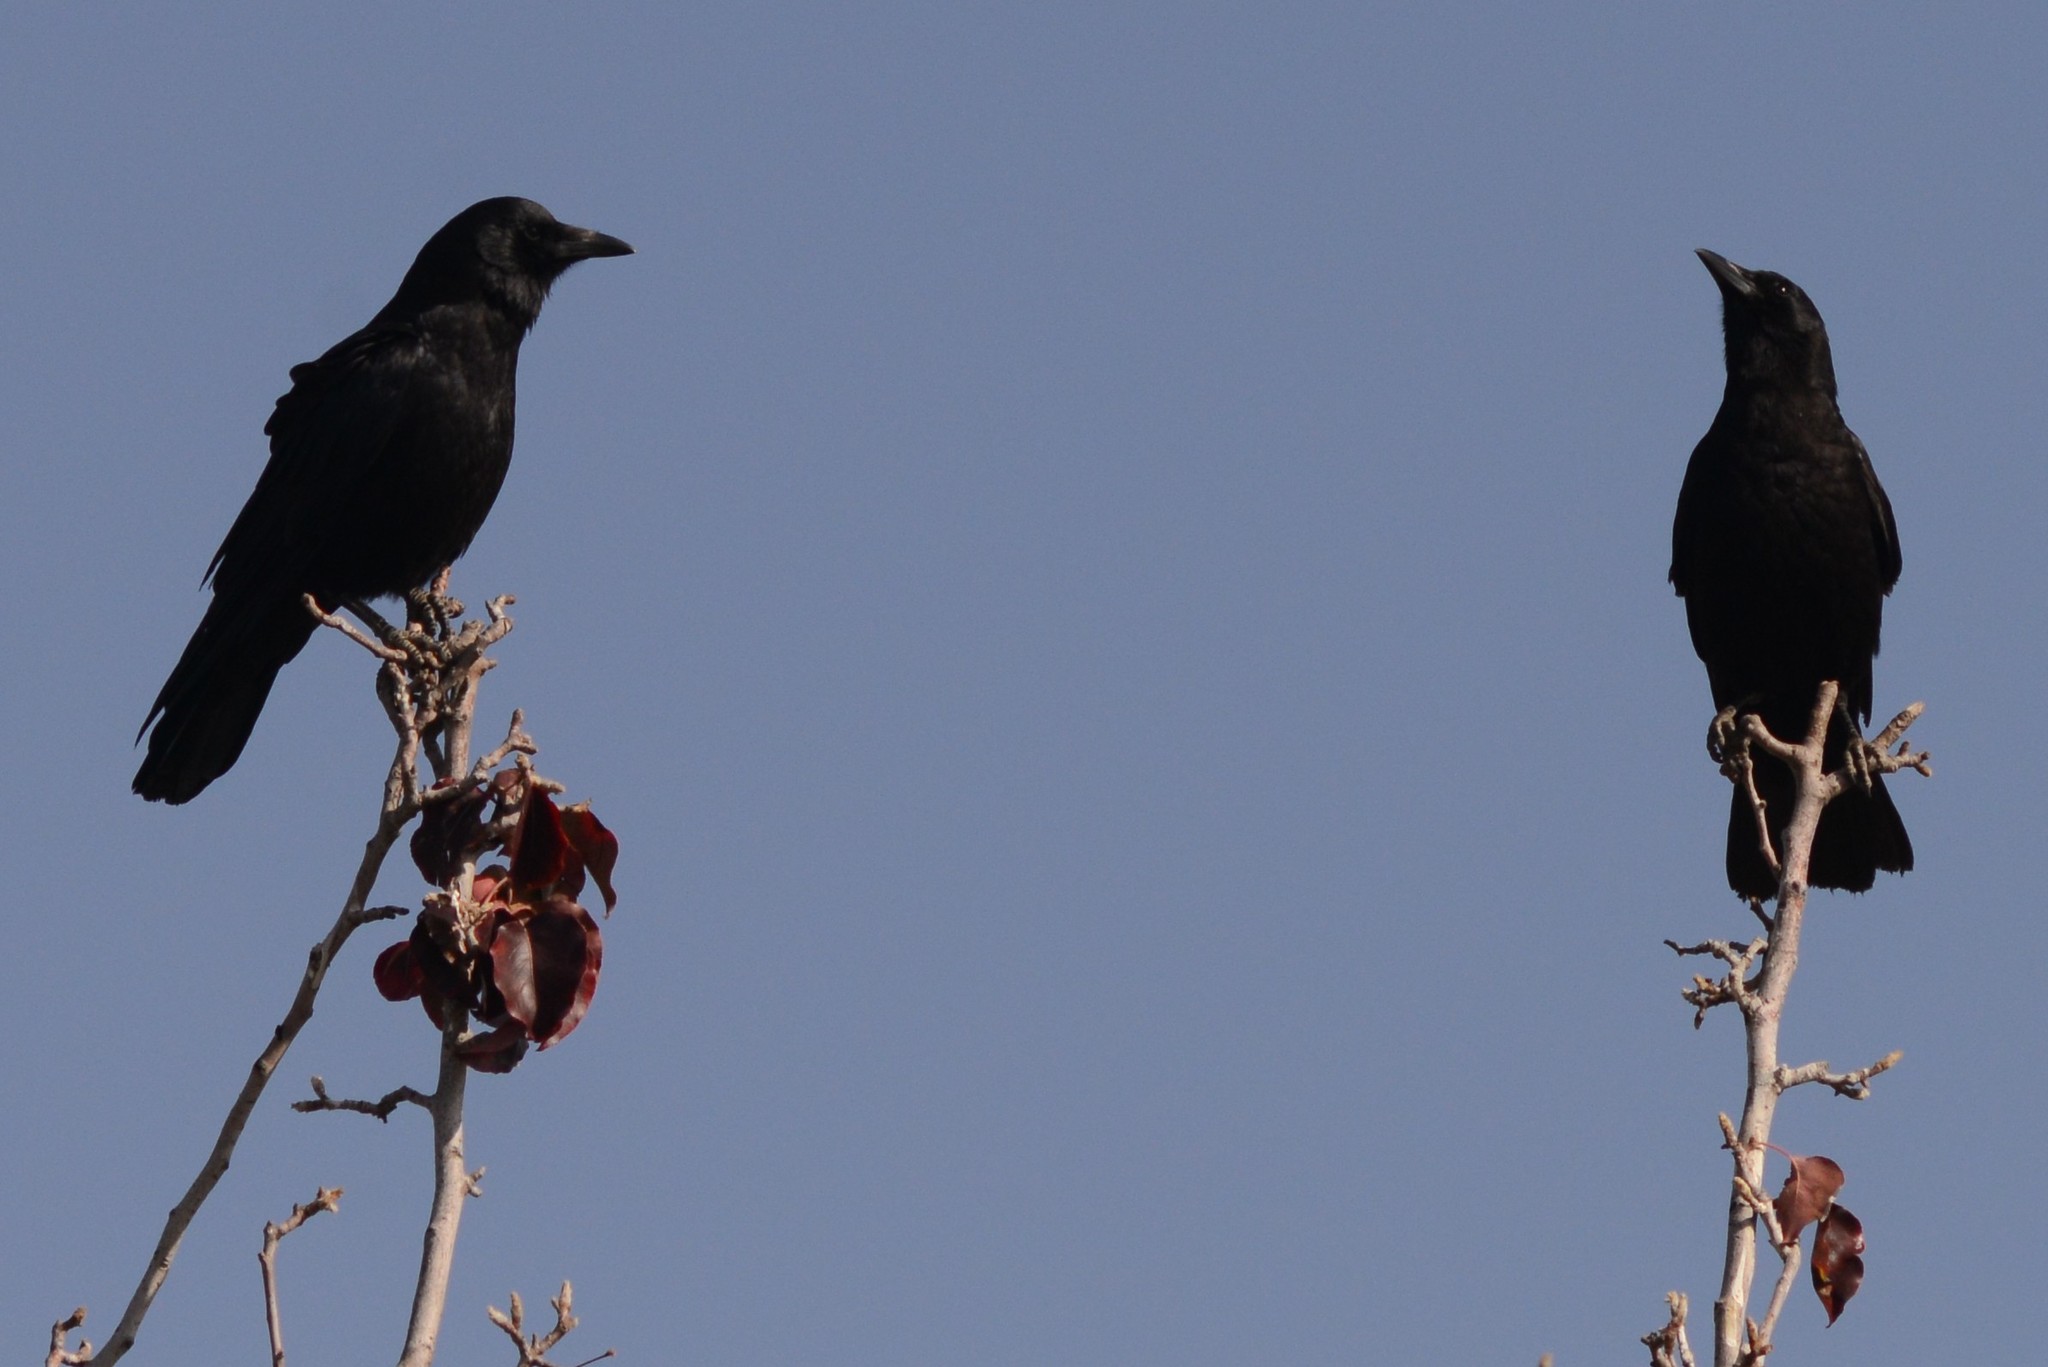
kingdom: Animalia
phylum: Chordata
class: Aves
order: Passeriformes
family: Corvidae
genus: Corvus
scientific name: Corvus brachyrhynchos
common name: American crow
